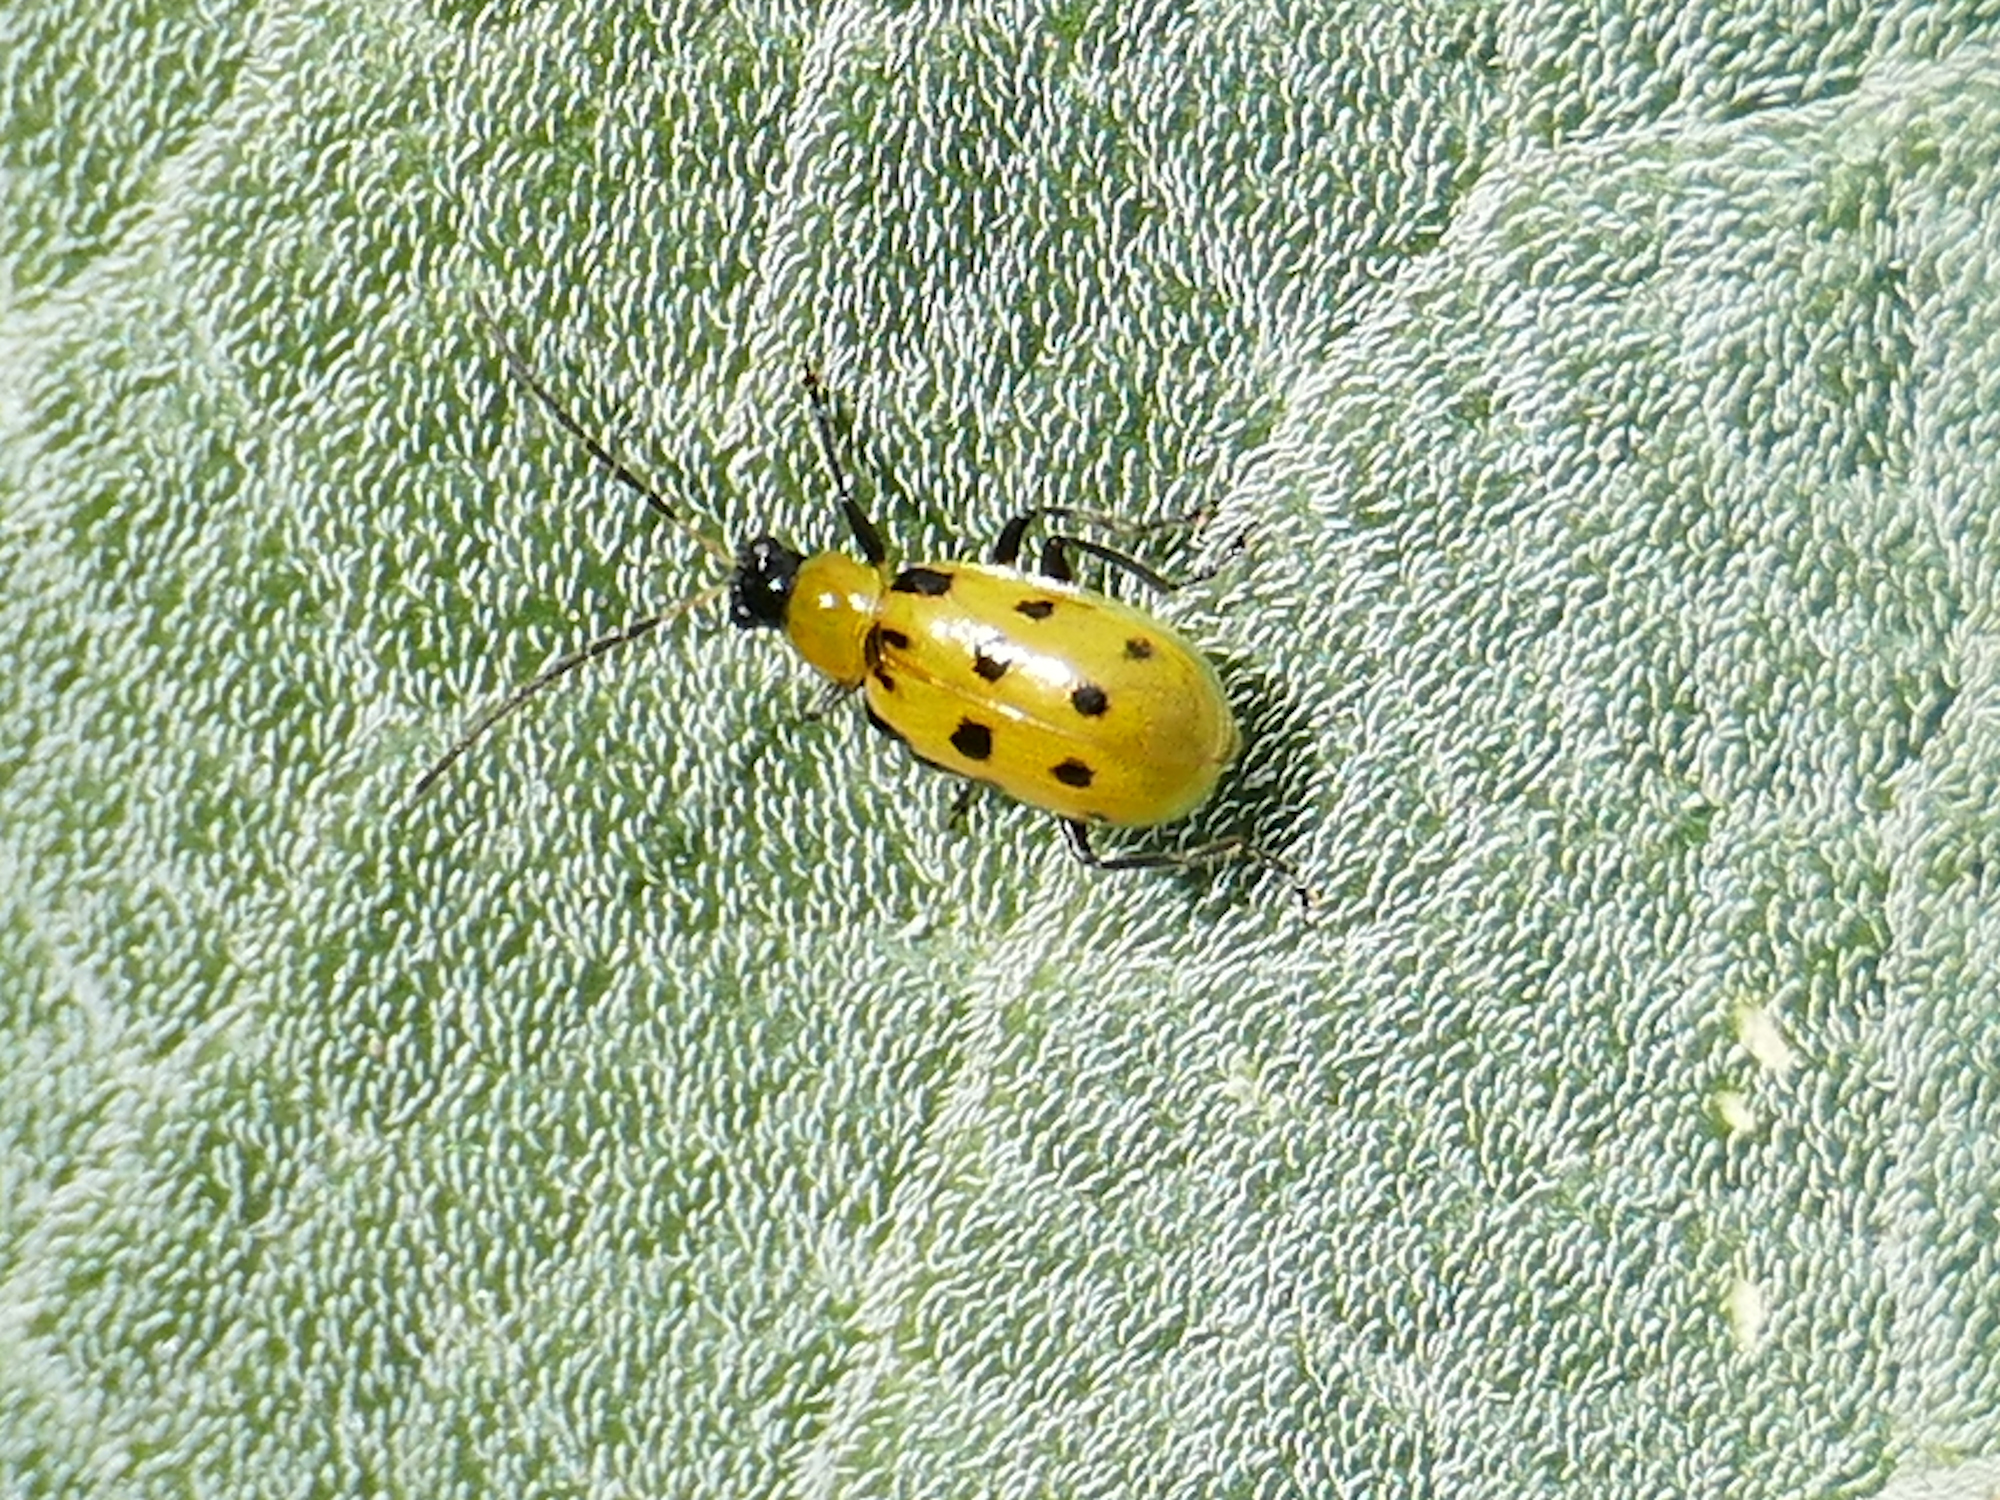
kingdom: Animalia
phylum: Arthropoda
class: Insecta
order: Coleoptera
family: Chrysomelidae
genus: Diabrotica
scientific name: Diabrotica undecimpunctata
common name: Spotted cucumber beetle
